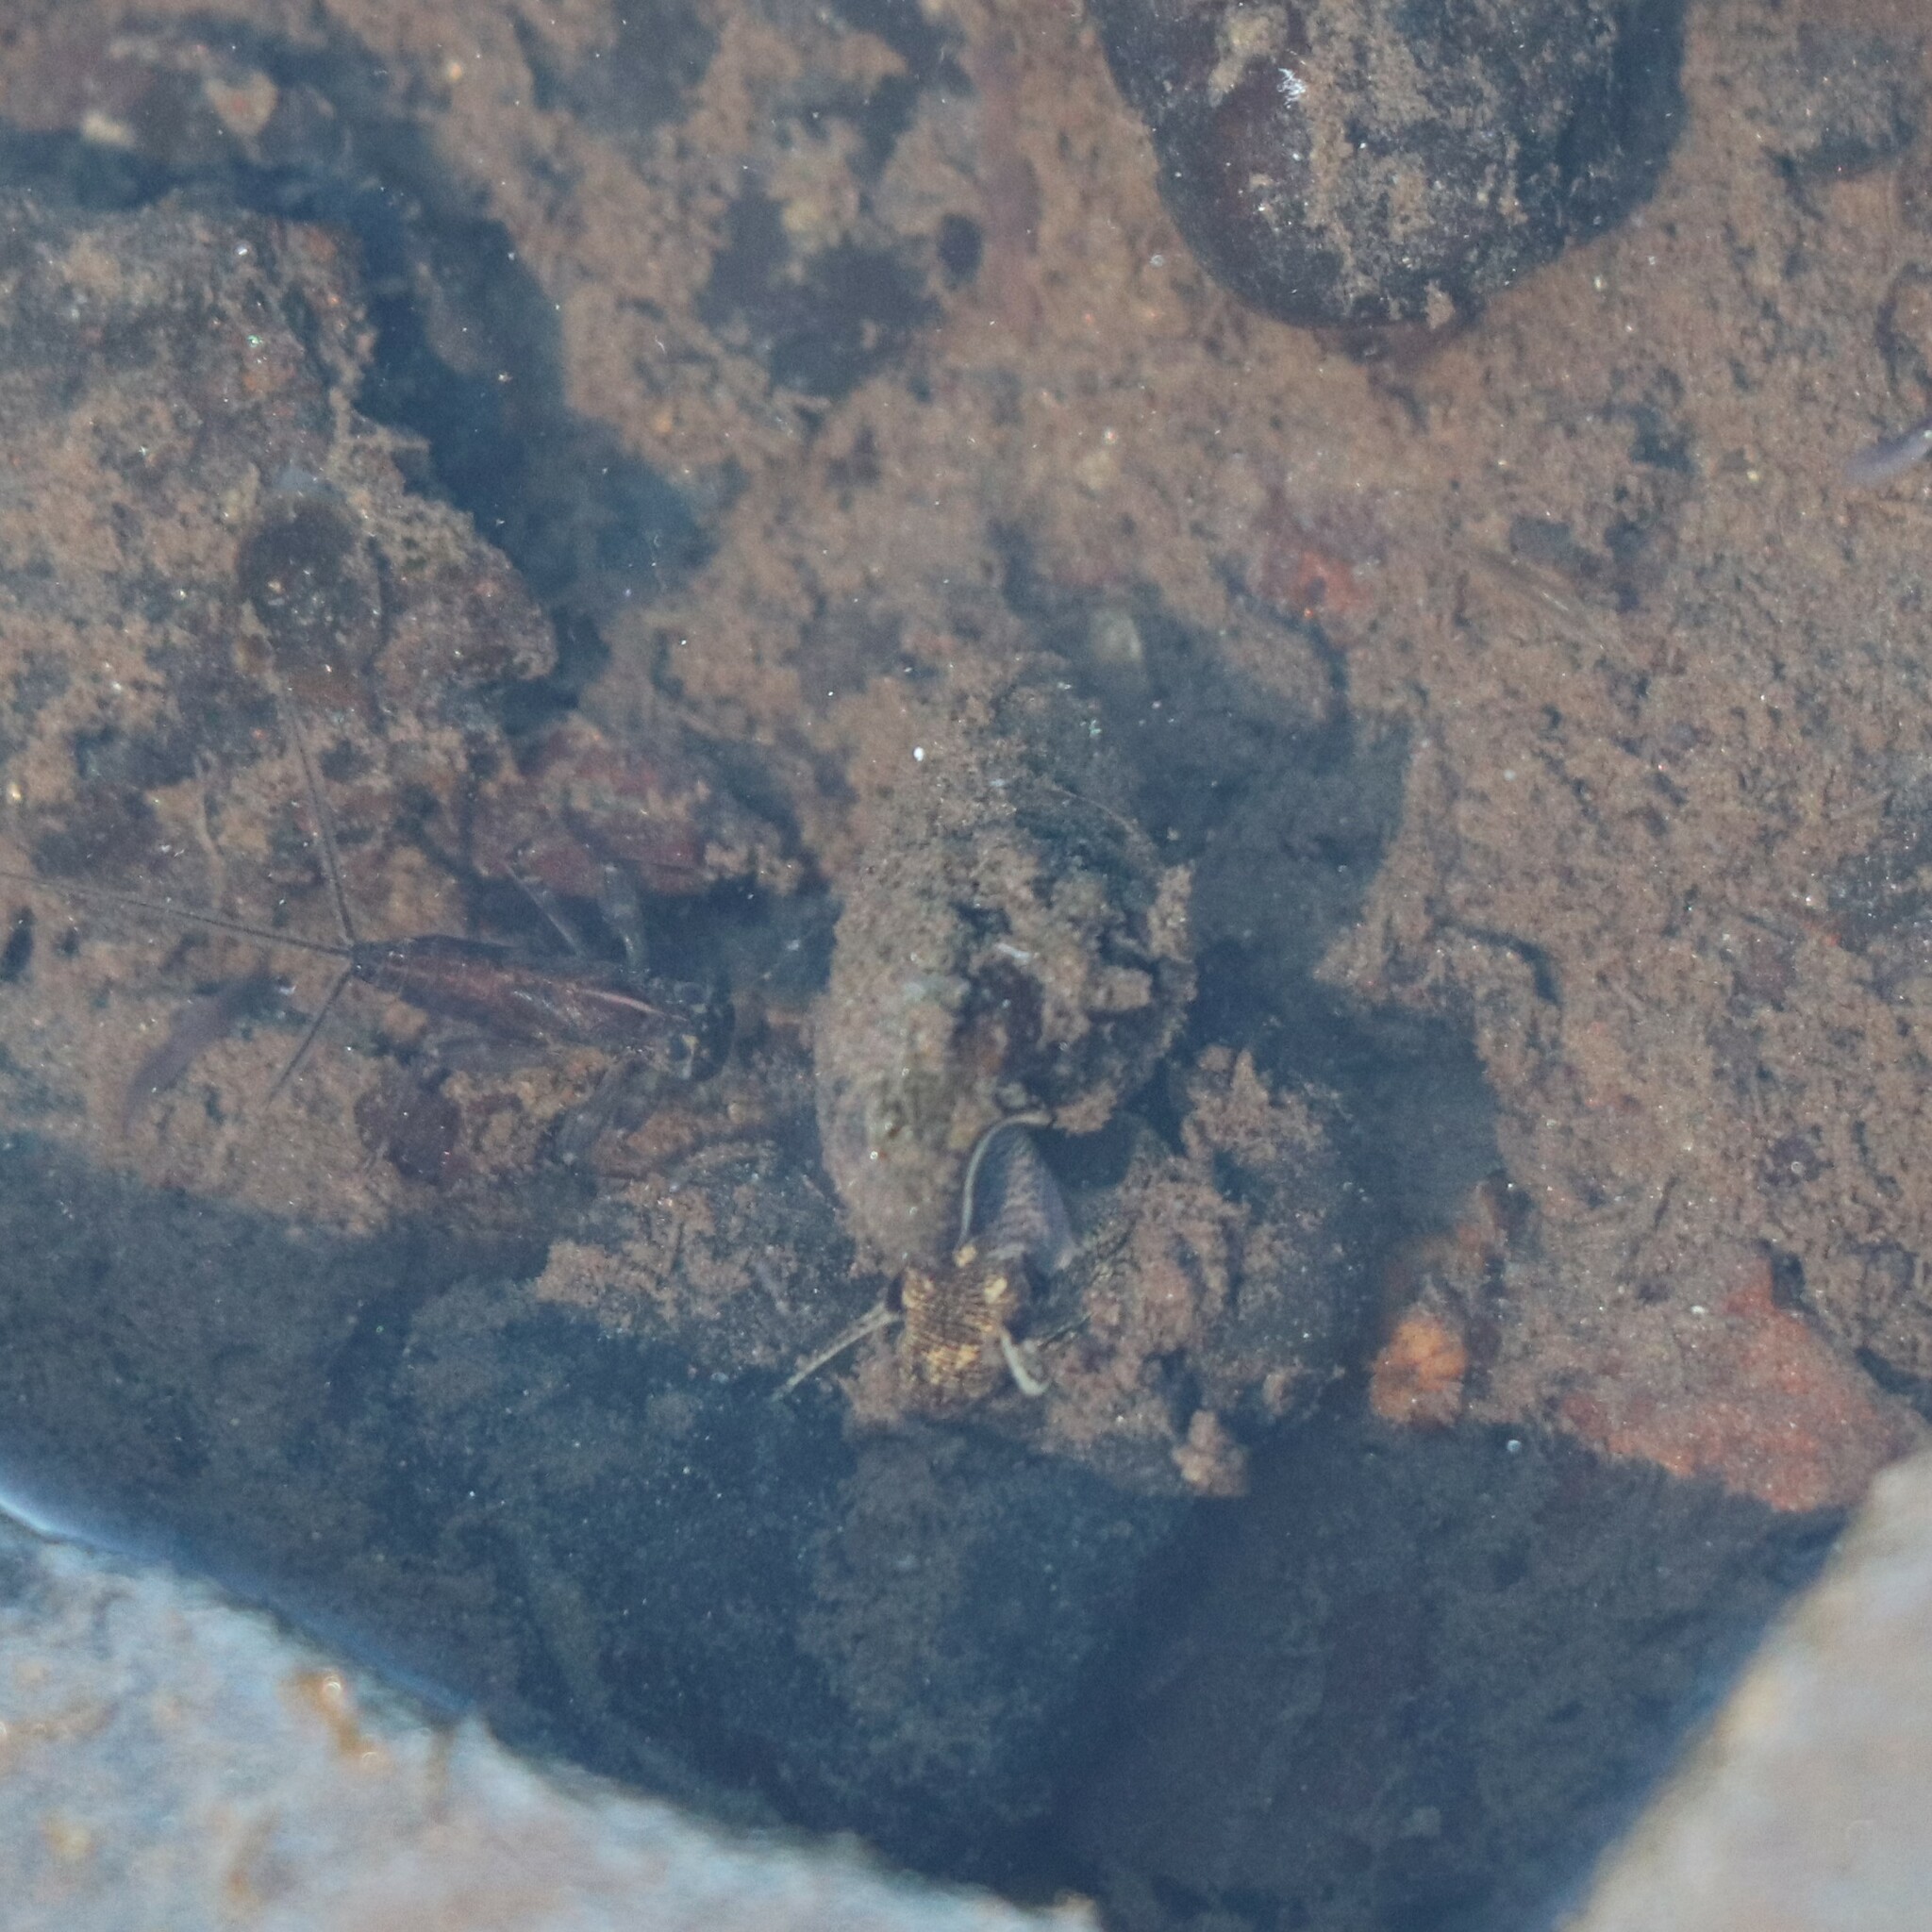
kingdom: Animalia
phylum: Mollusca
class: Gastropoda
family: Pleuroceridae
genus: Elimia
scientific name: Elimia virginica
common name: Piedmont elimia
